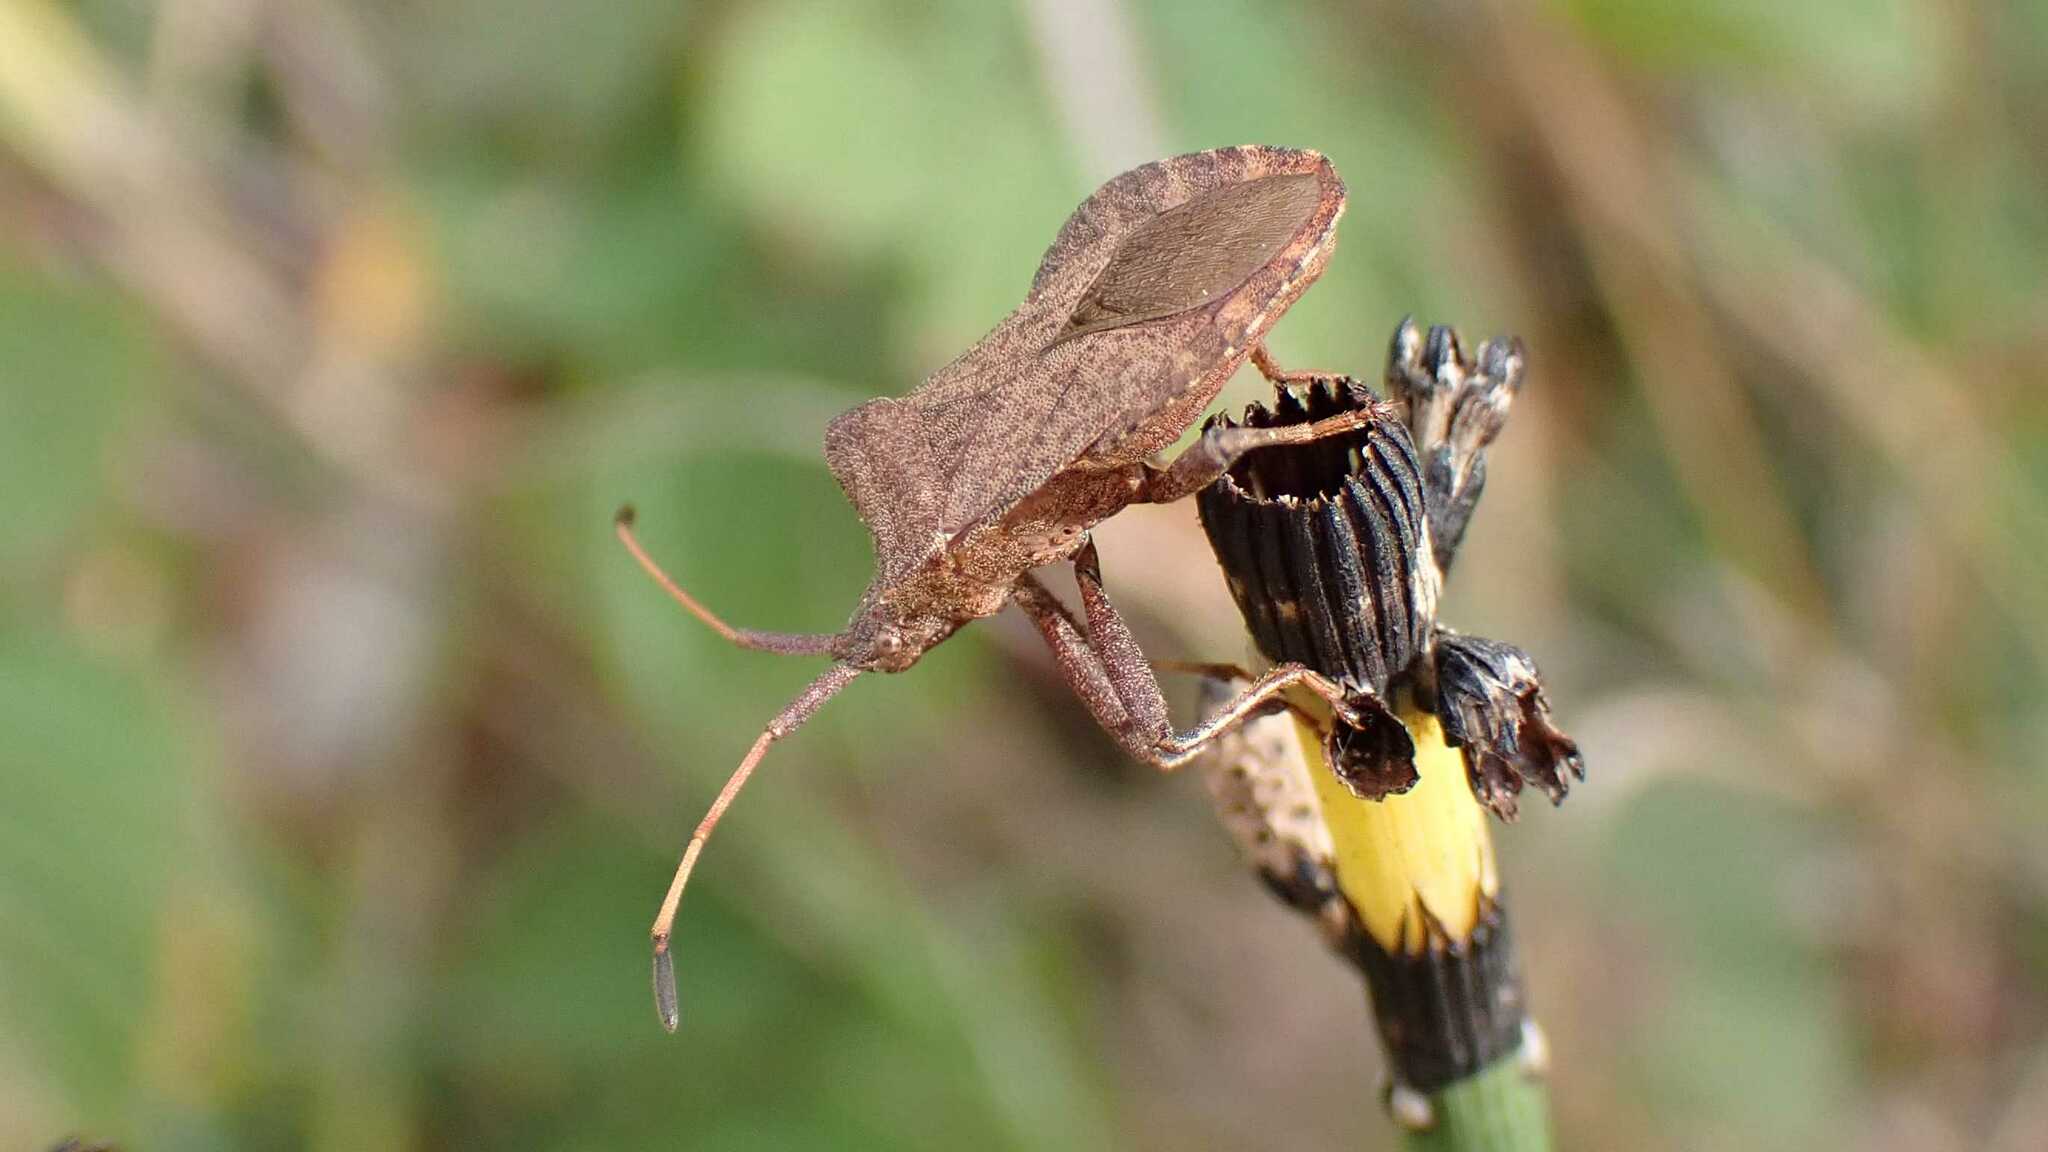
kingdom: Animalia
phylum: Arthropoda
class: Insecta
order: Hemiptera
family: Coreidae
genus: Coreus
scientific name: Coreus marginatus
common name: Dock bug
